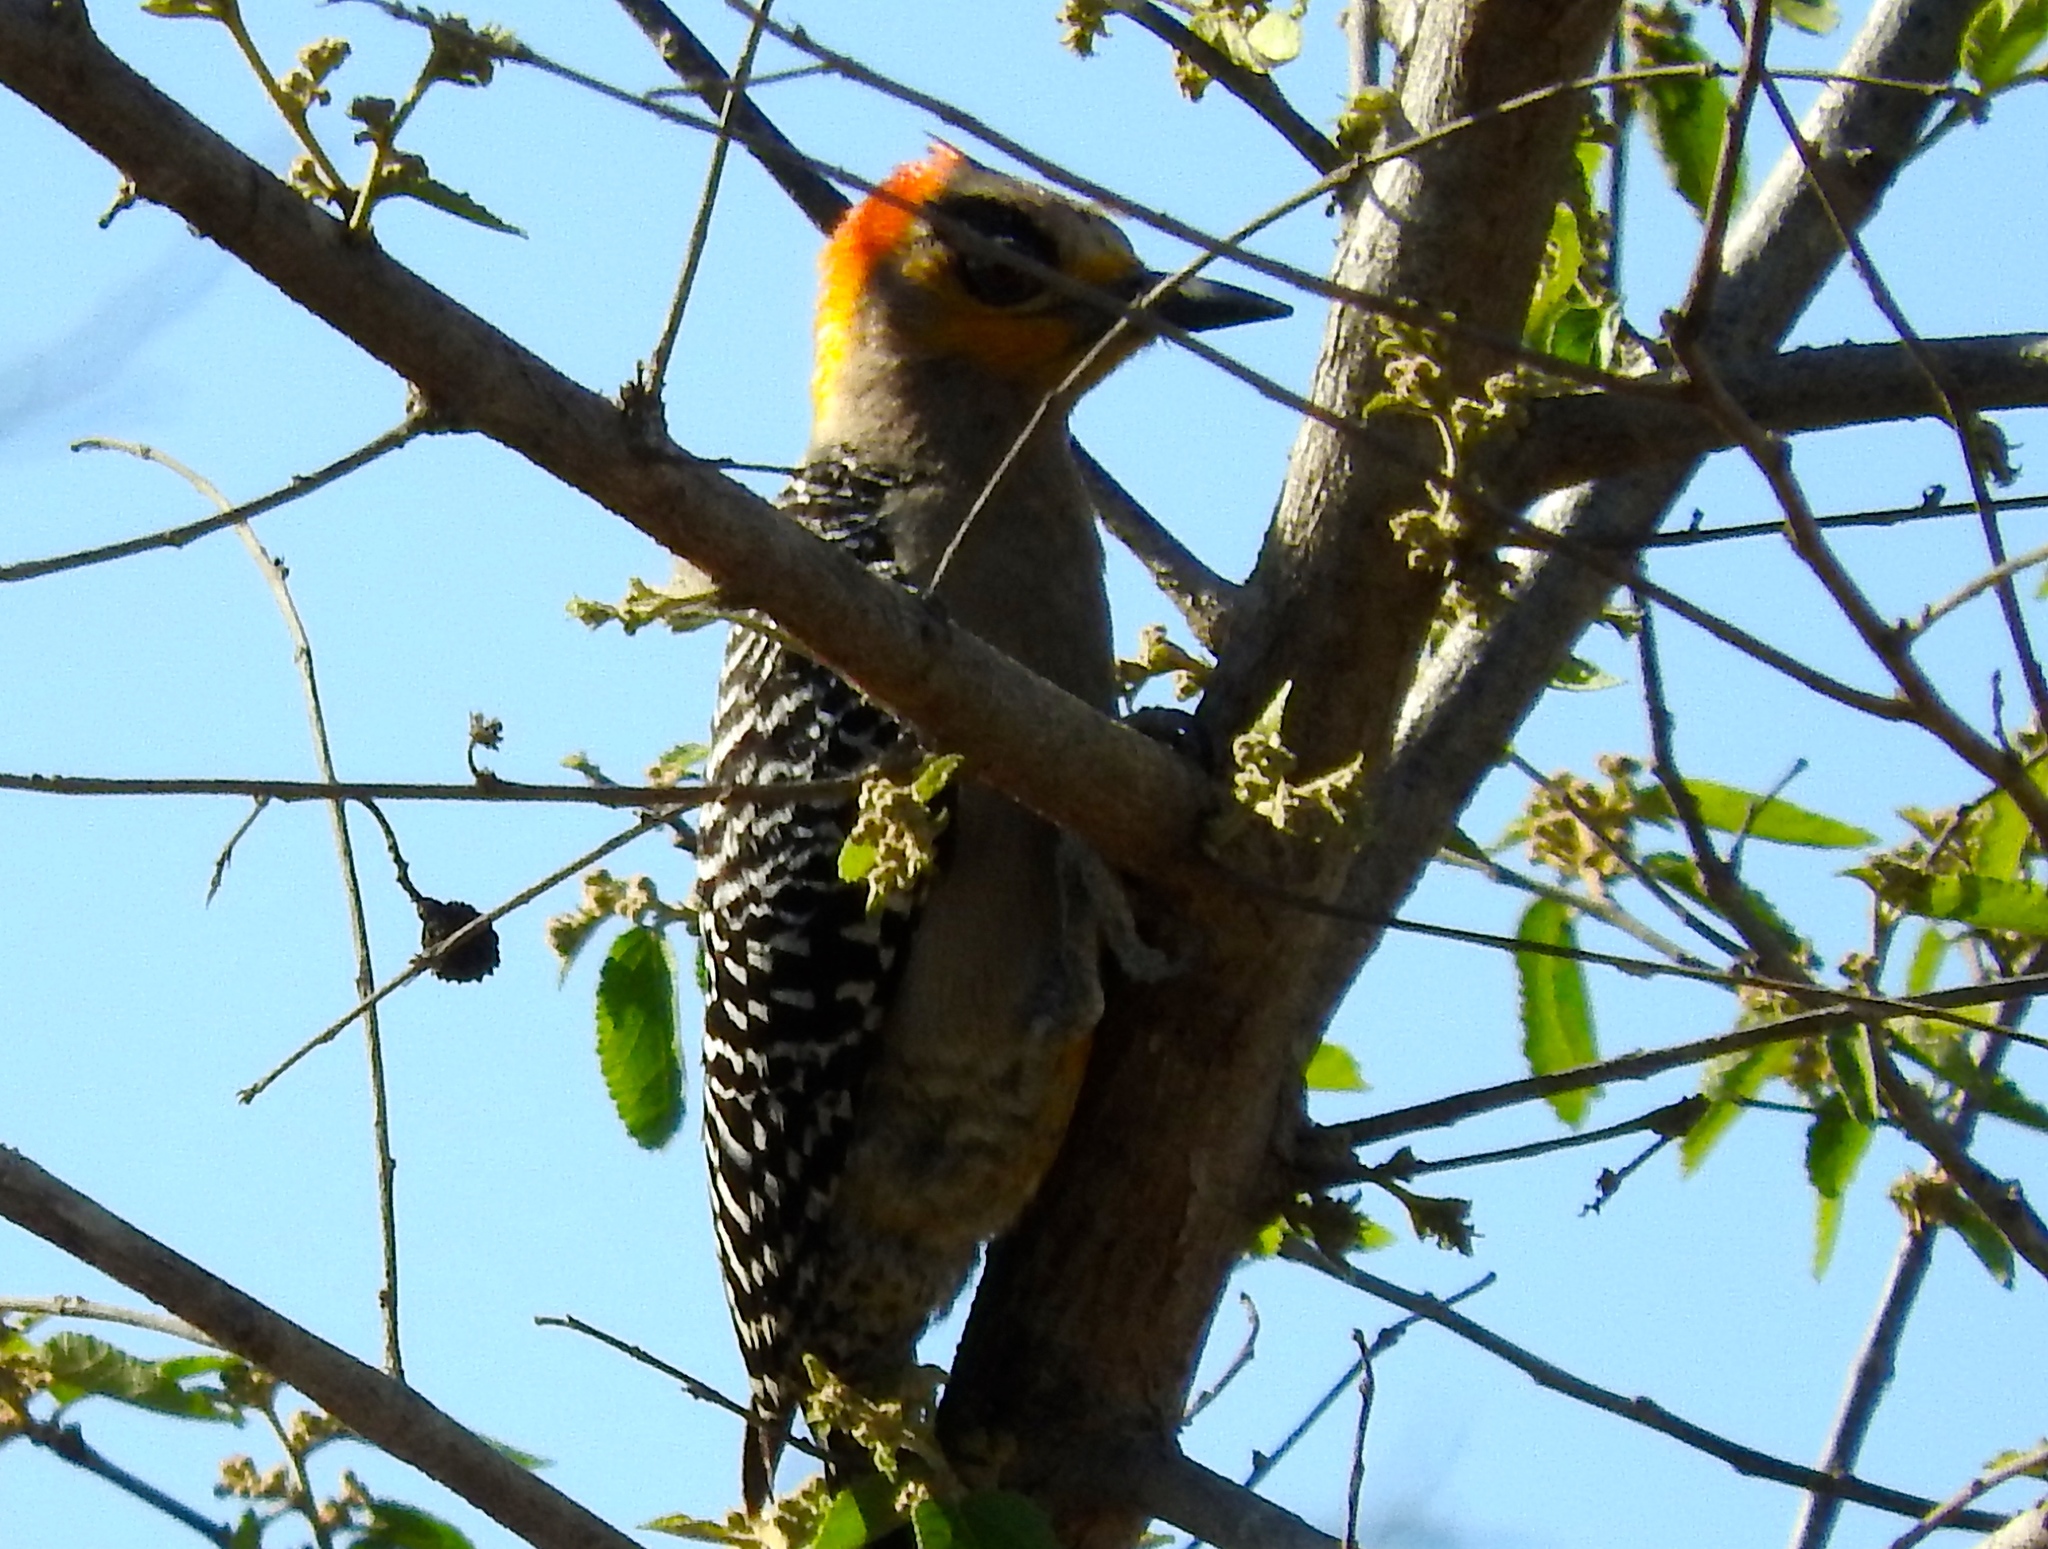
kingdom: Animalia
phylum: Chordata
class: Aves
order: Piciformes
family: Picidae
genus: Melanerpes
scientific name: Melanerpes chrysogenys
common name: Golden-cheeked woodpecker
